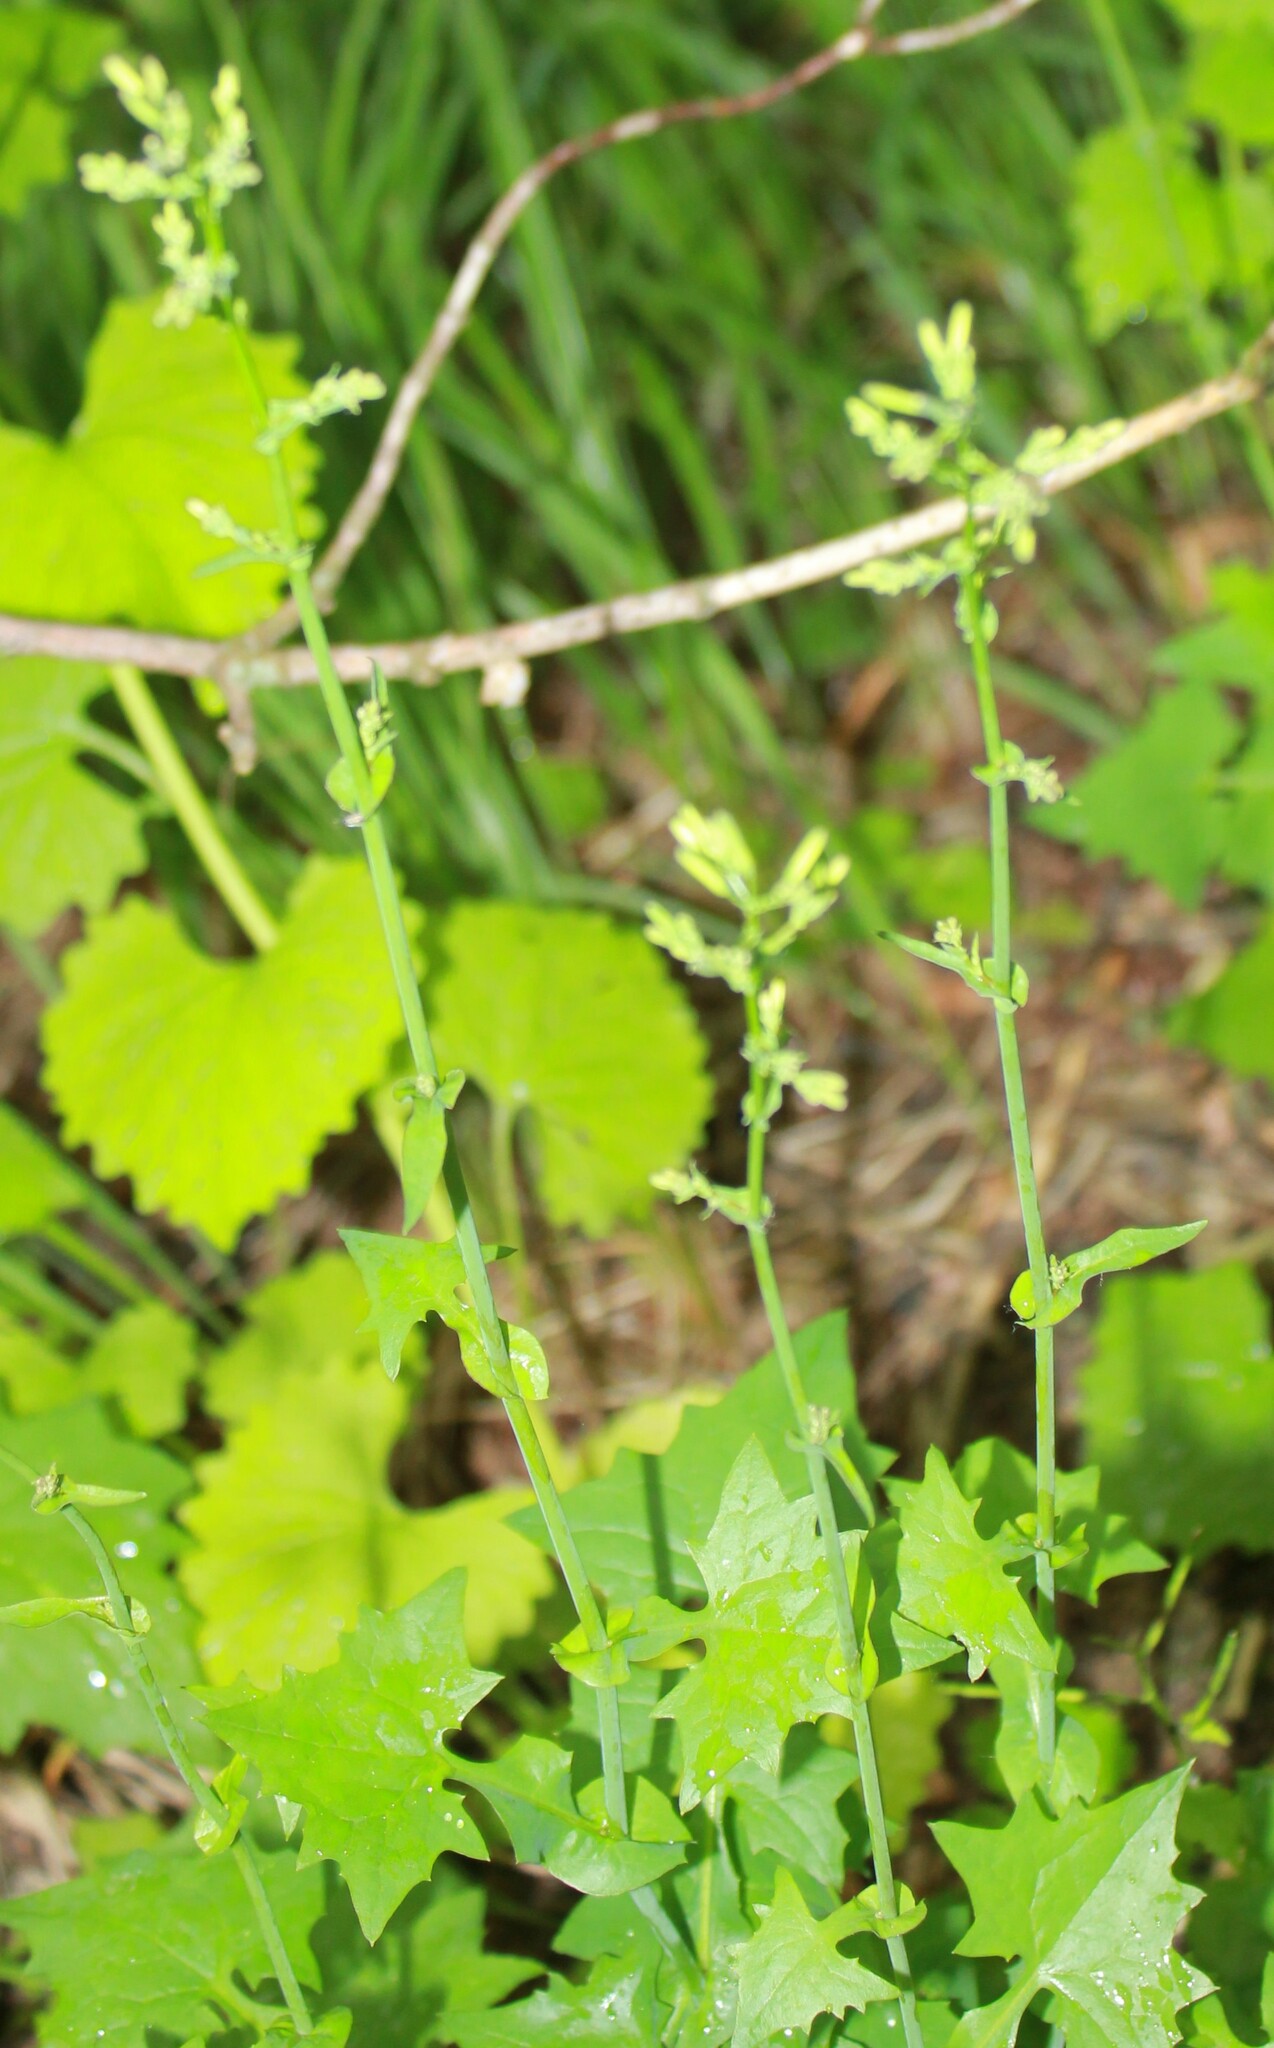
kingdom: Plantae
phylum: Tracheophyta
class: Magnoliopsida
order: Asterales
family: Asteraceae
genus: Mycelis
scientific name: Mycelis muralis
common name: Wall lettuce
